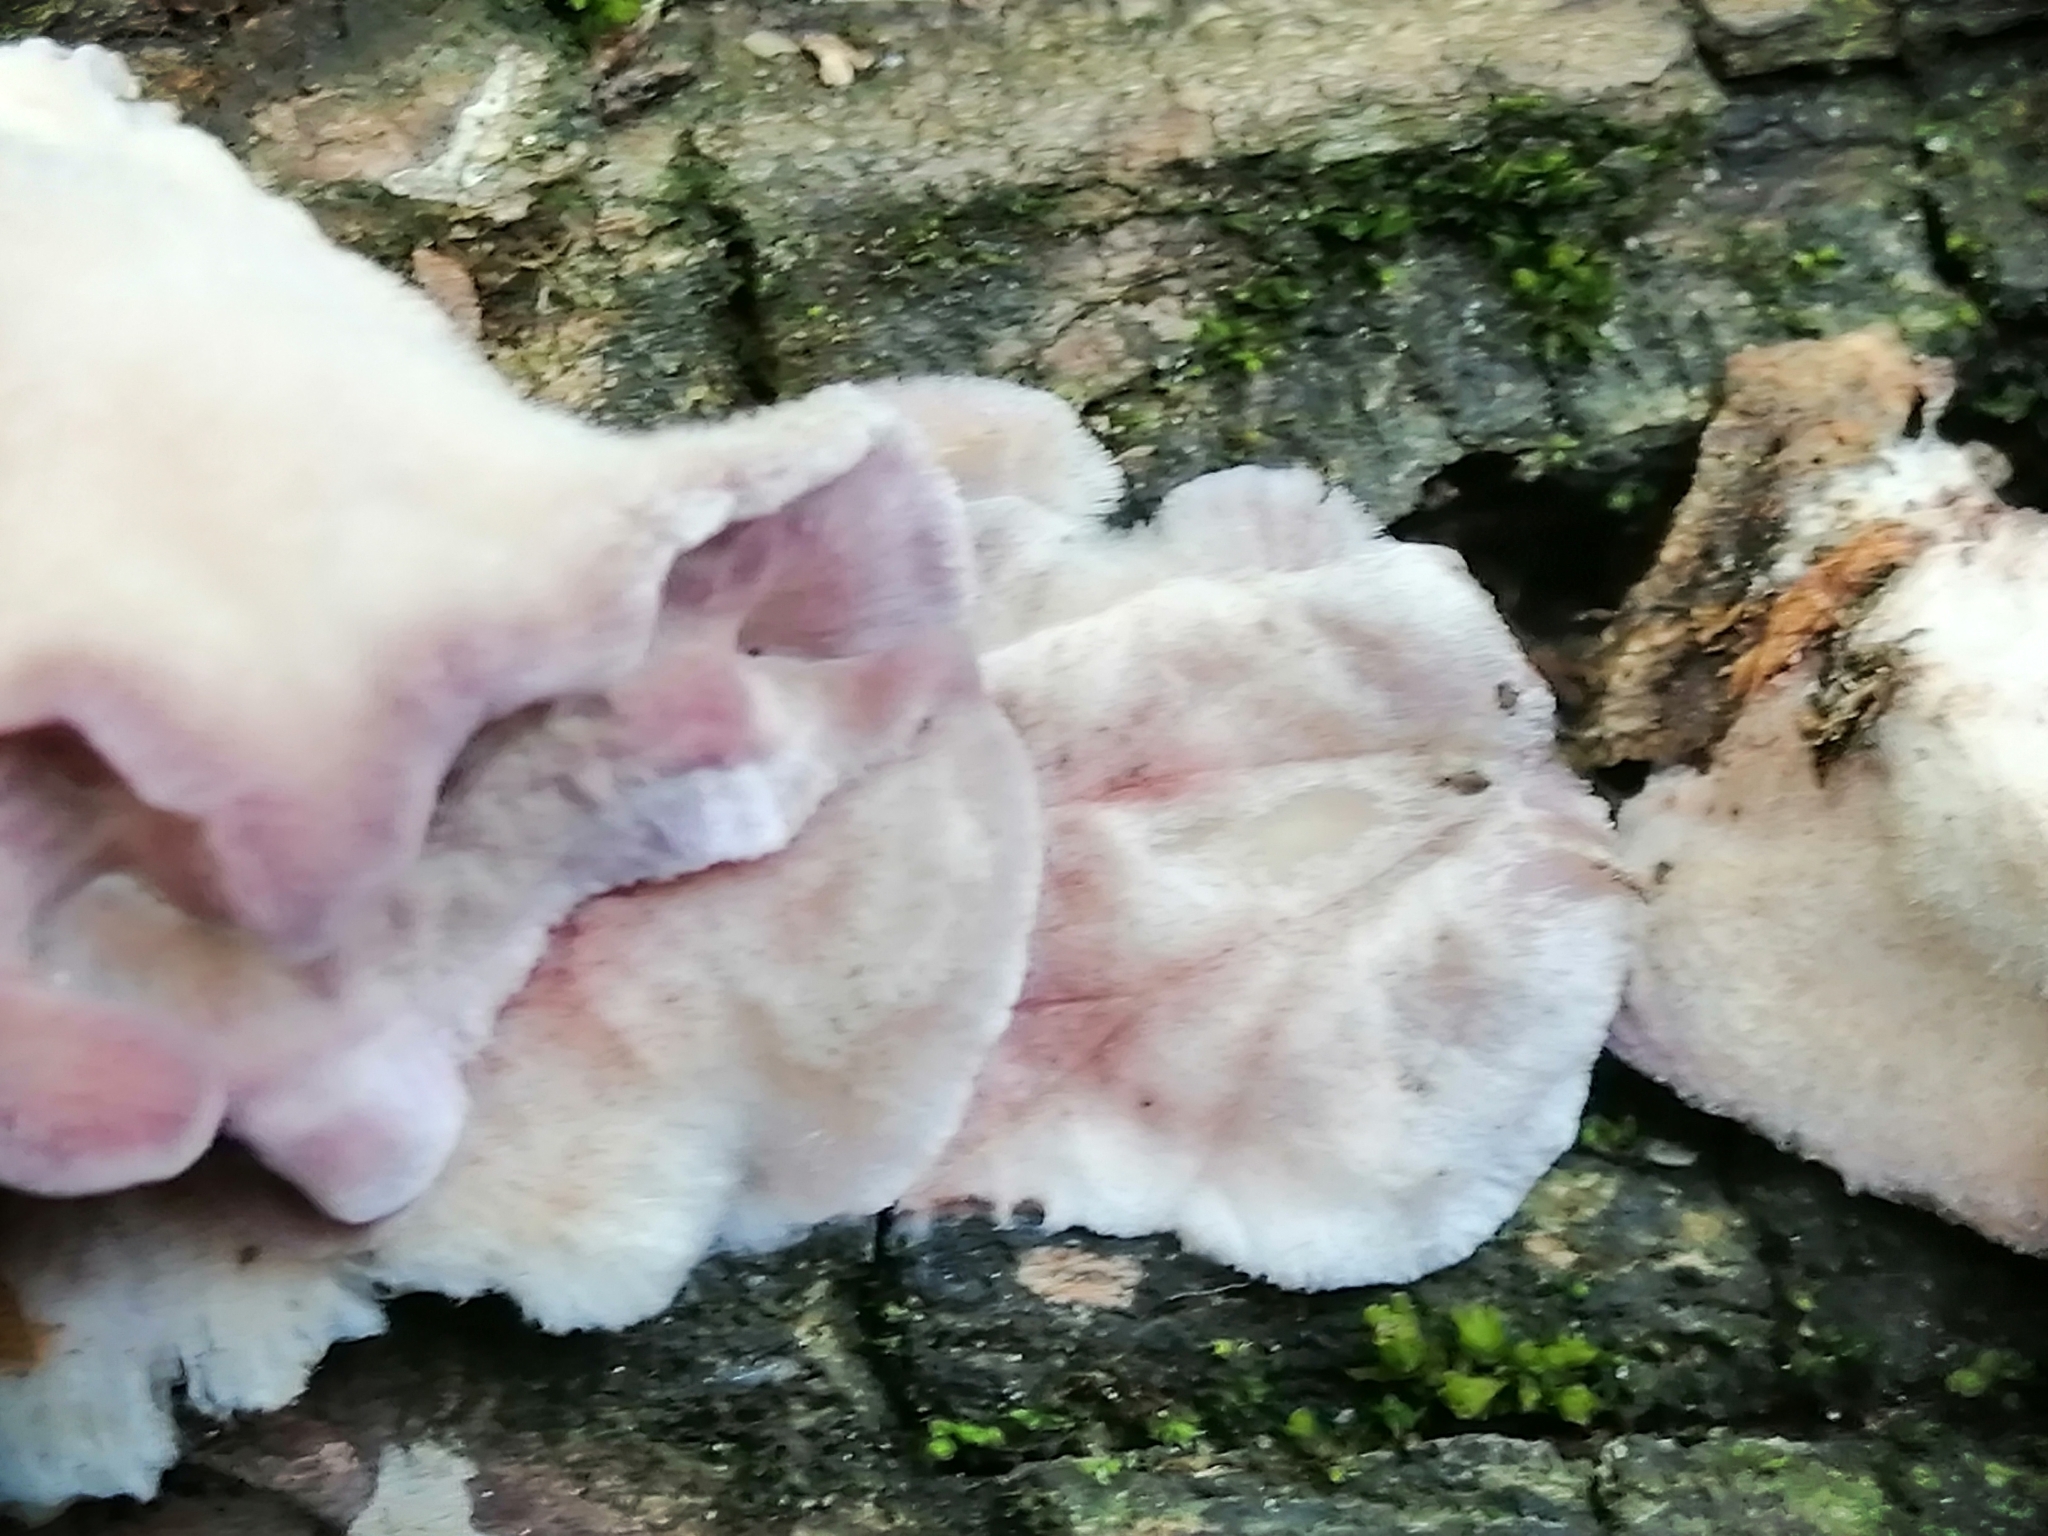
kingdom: Fungi
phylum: Basidiomycota
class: Agaricomycetes
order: Agaricales
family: Cyphellaceae
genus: Chondrostereum
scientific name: Chondrostereum purpureum
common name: Silver leaf disease
